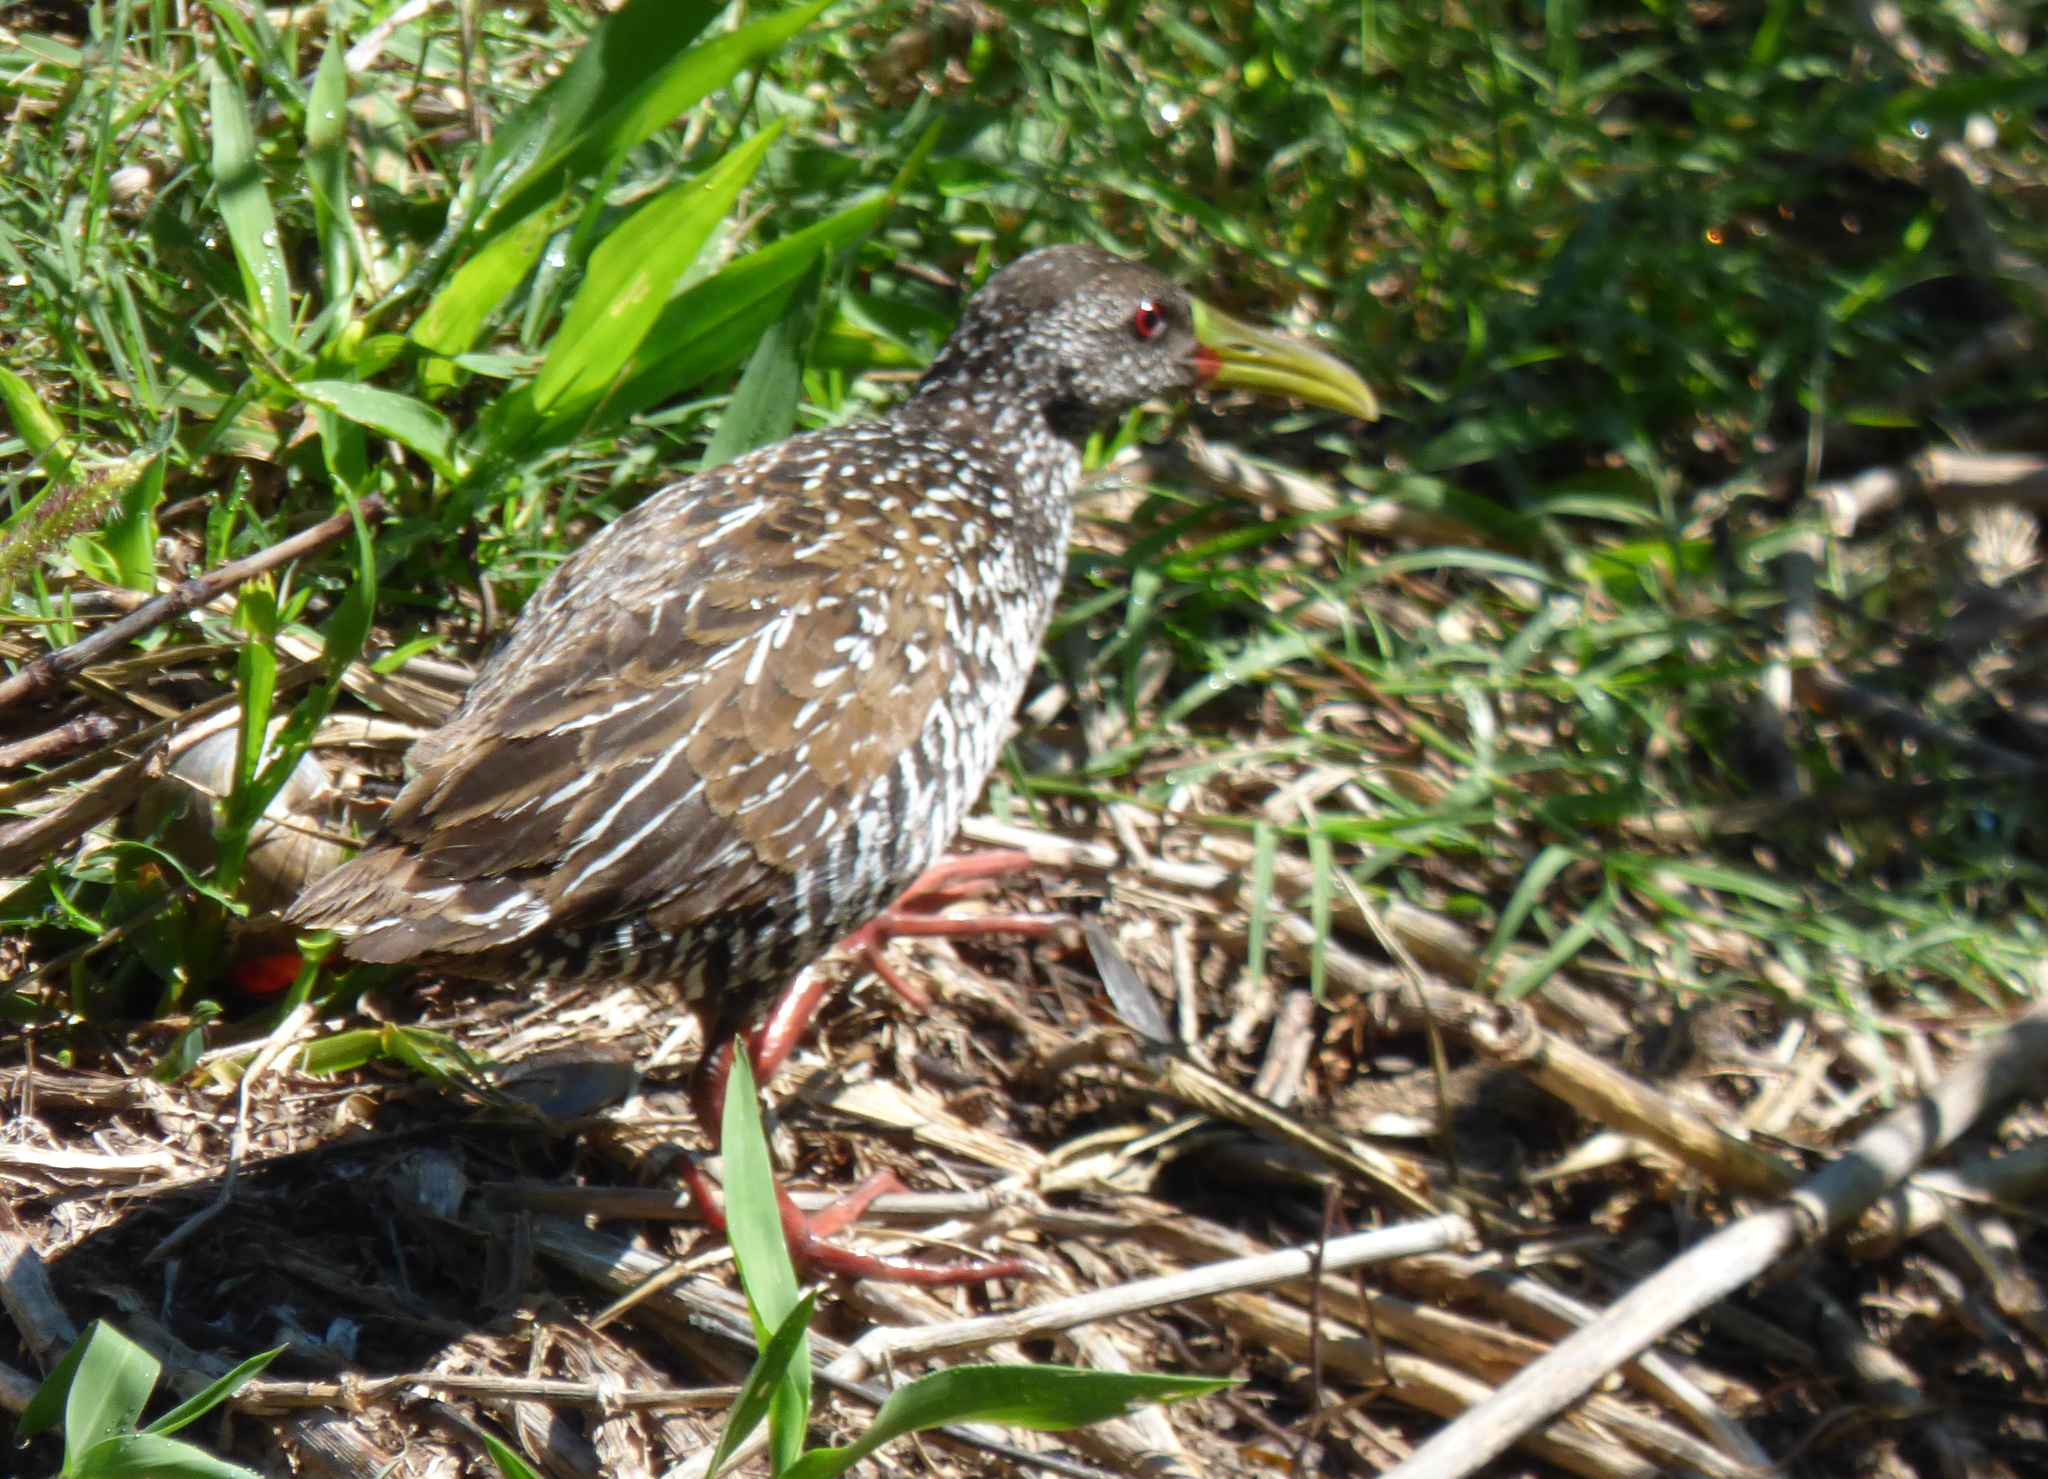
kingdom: Animalia
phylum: Chordata
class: Aves
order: Gruiformes
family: Rallidae
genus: Pardirallus
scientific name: Pardirallus maculatus
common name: Spotted rail
